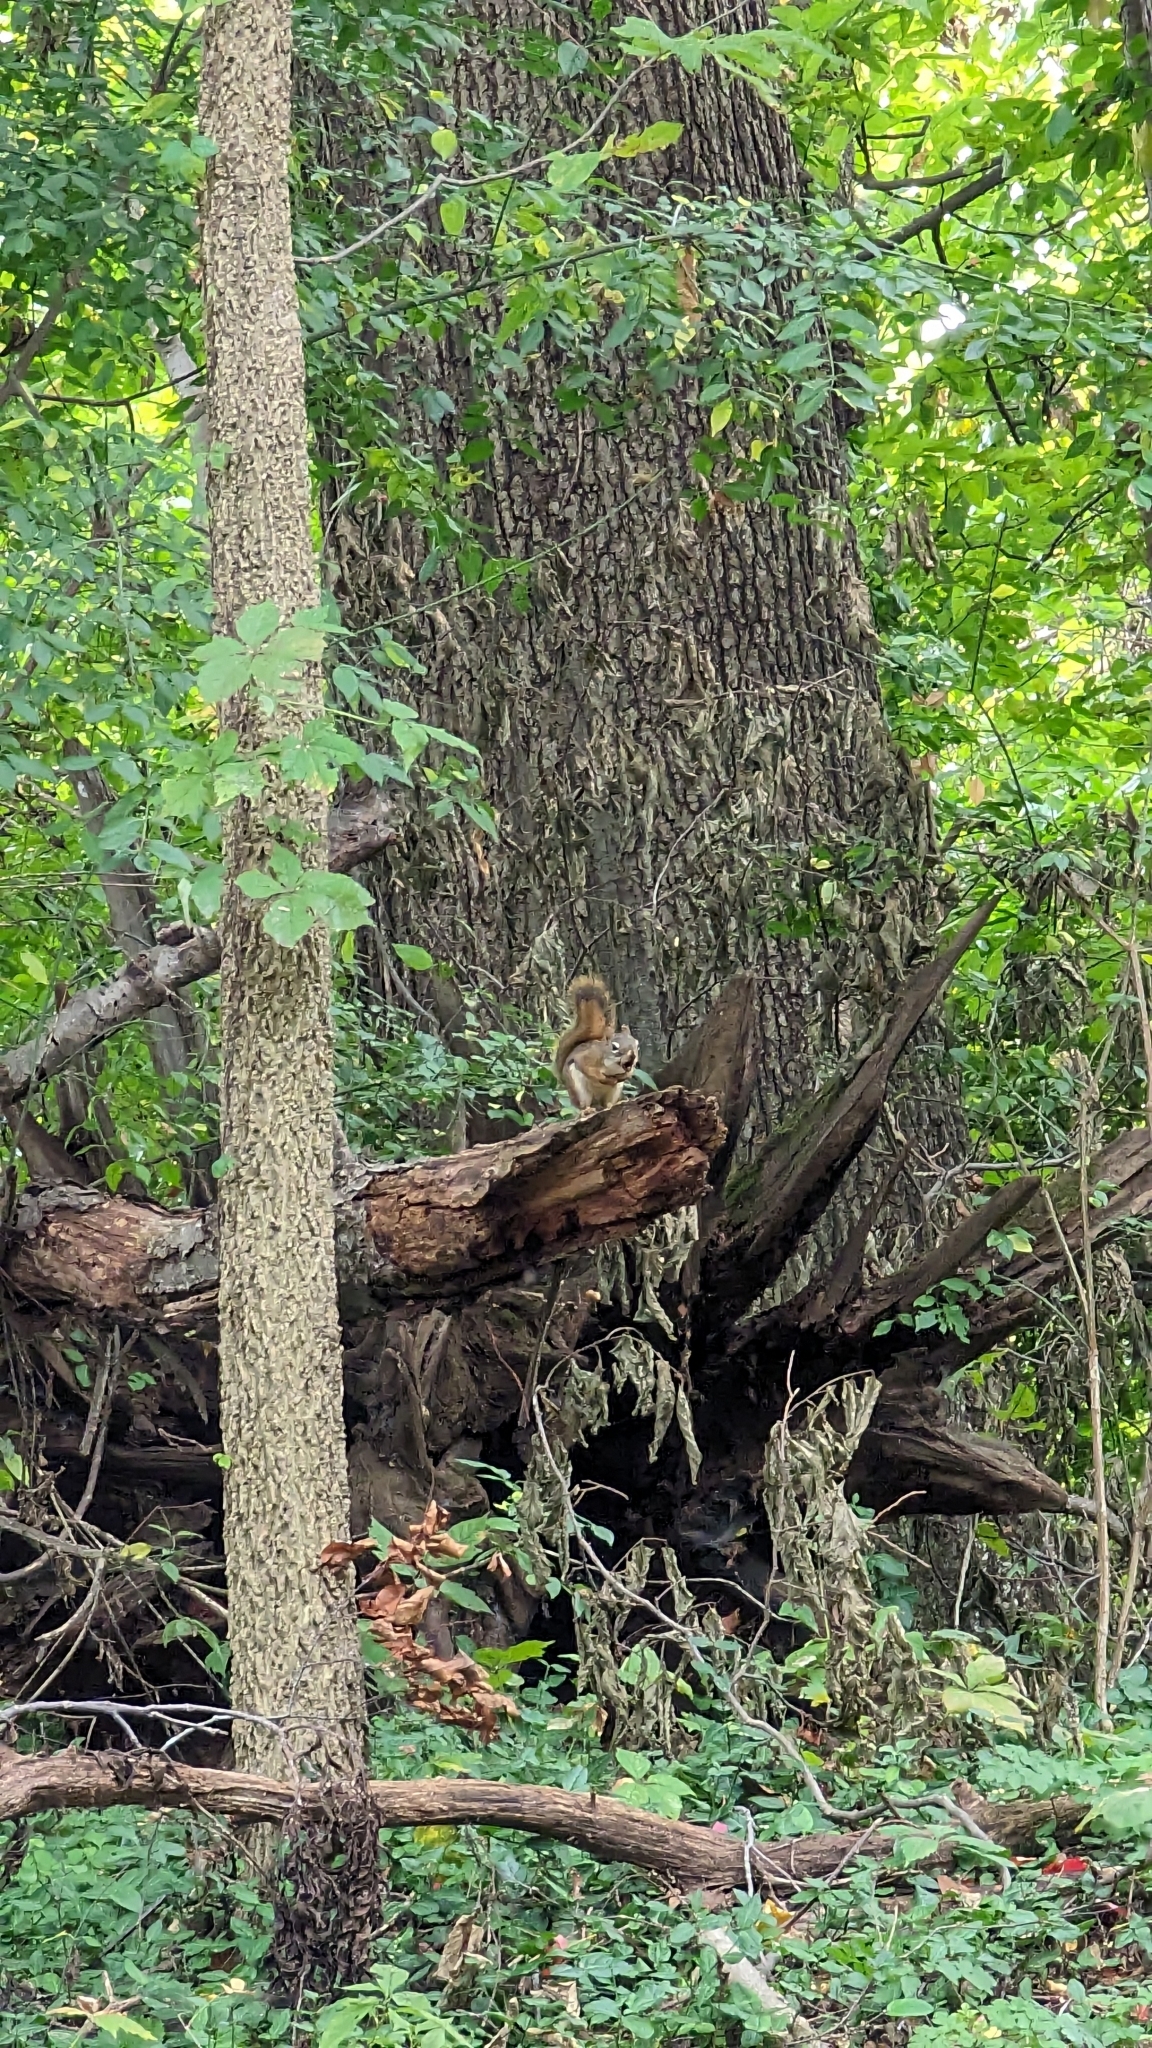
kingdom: Animalia
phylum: Chordata
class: Mammalia
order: Rodentia
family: Sciuridae
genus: Tamiasciurus
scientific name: Tamiasciurus hudsonicus
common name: Red squirrel
